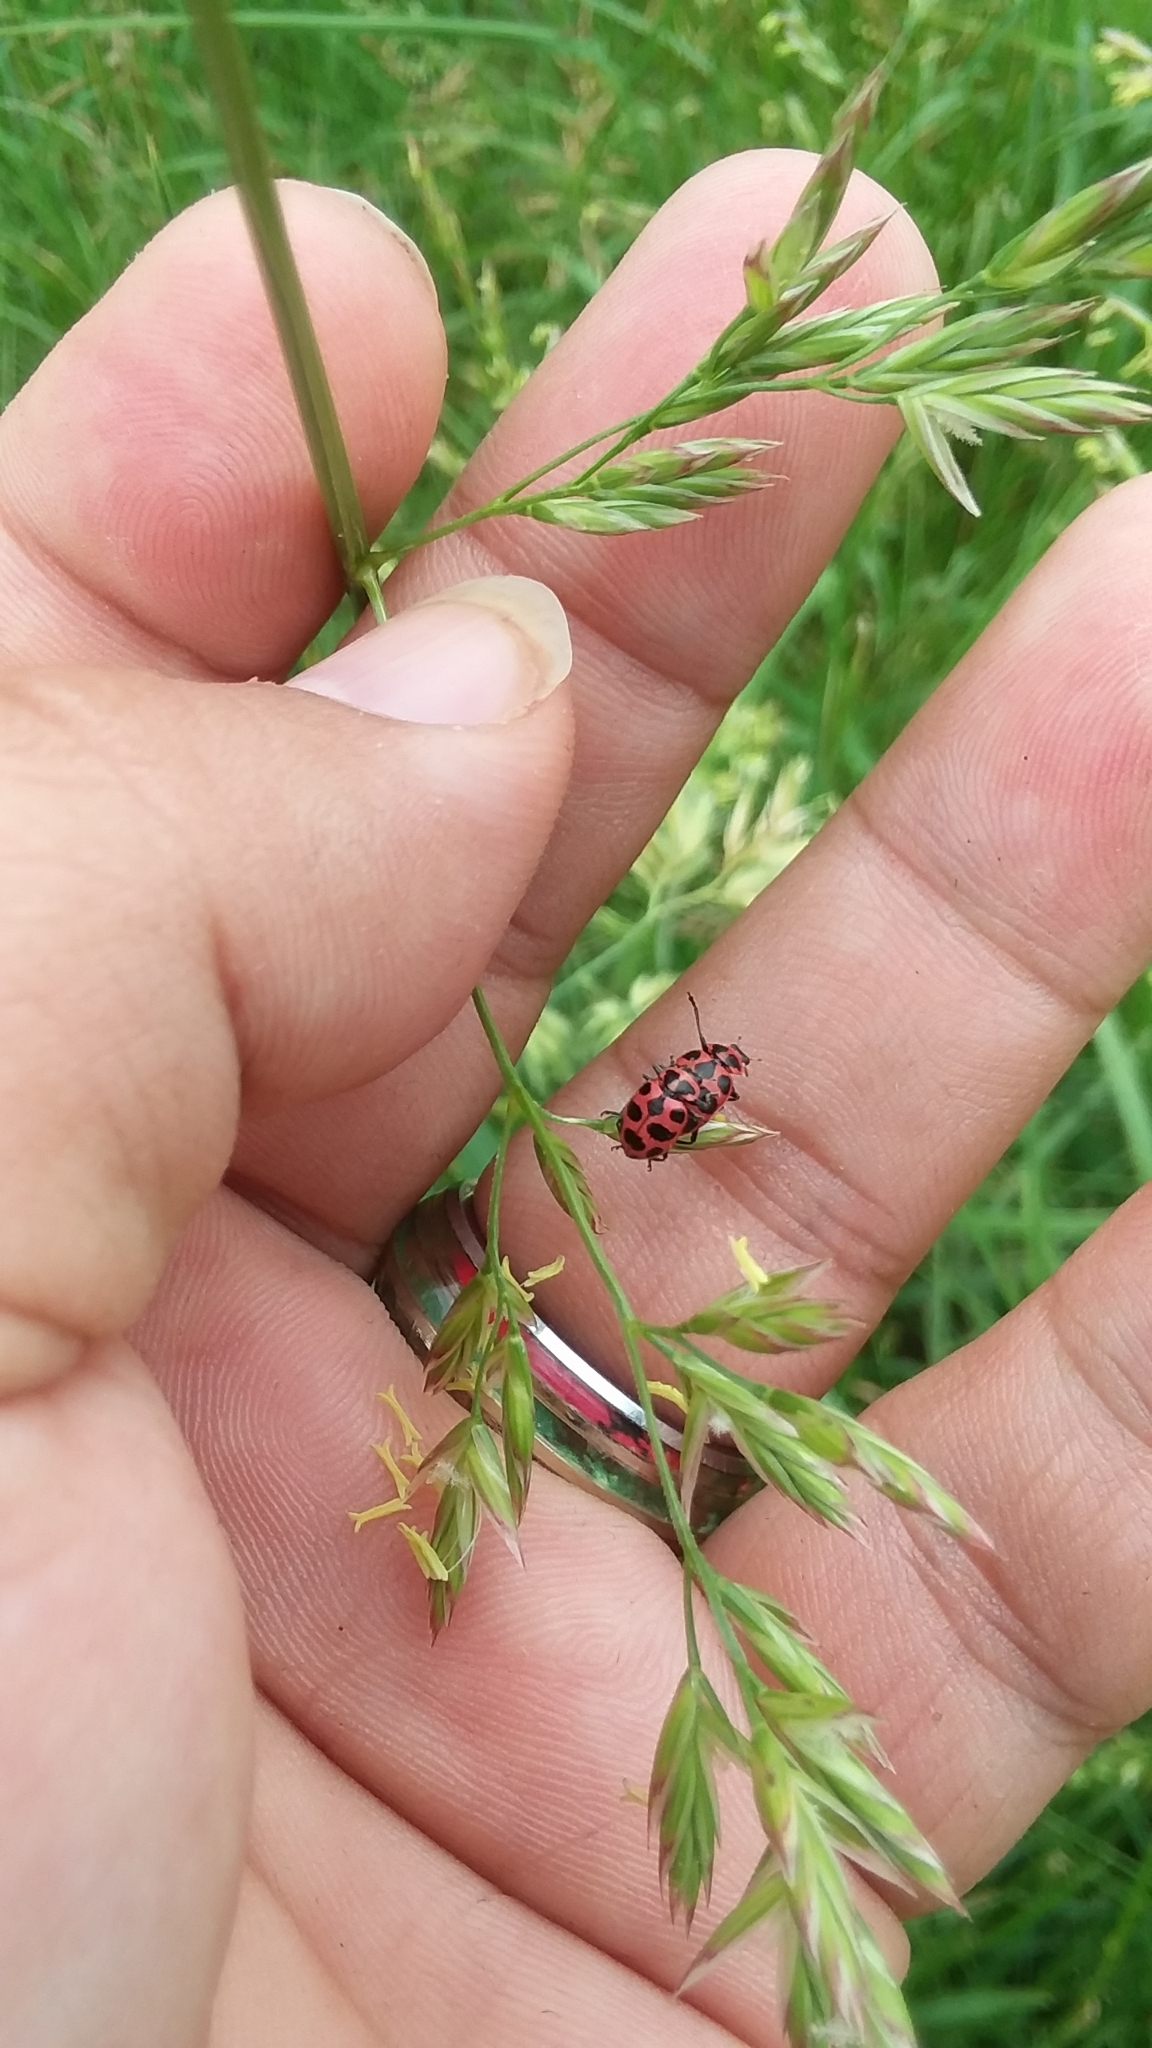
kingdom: Animalia
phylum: Arthropoda
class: Insecta
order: Coleoptera
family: Coccinellidae
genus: Coleomegilla
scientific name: Coleomegilla maculata
